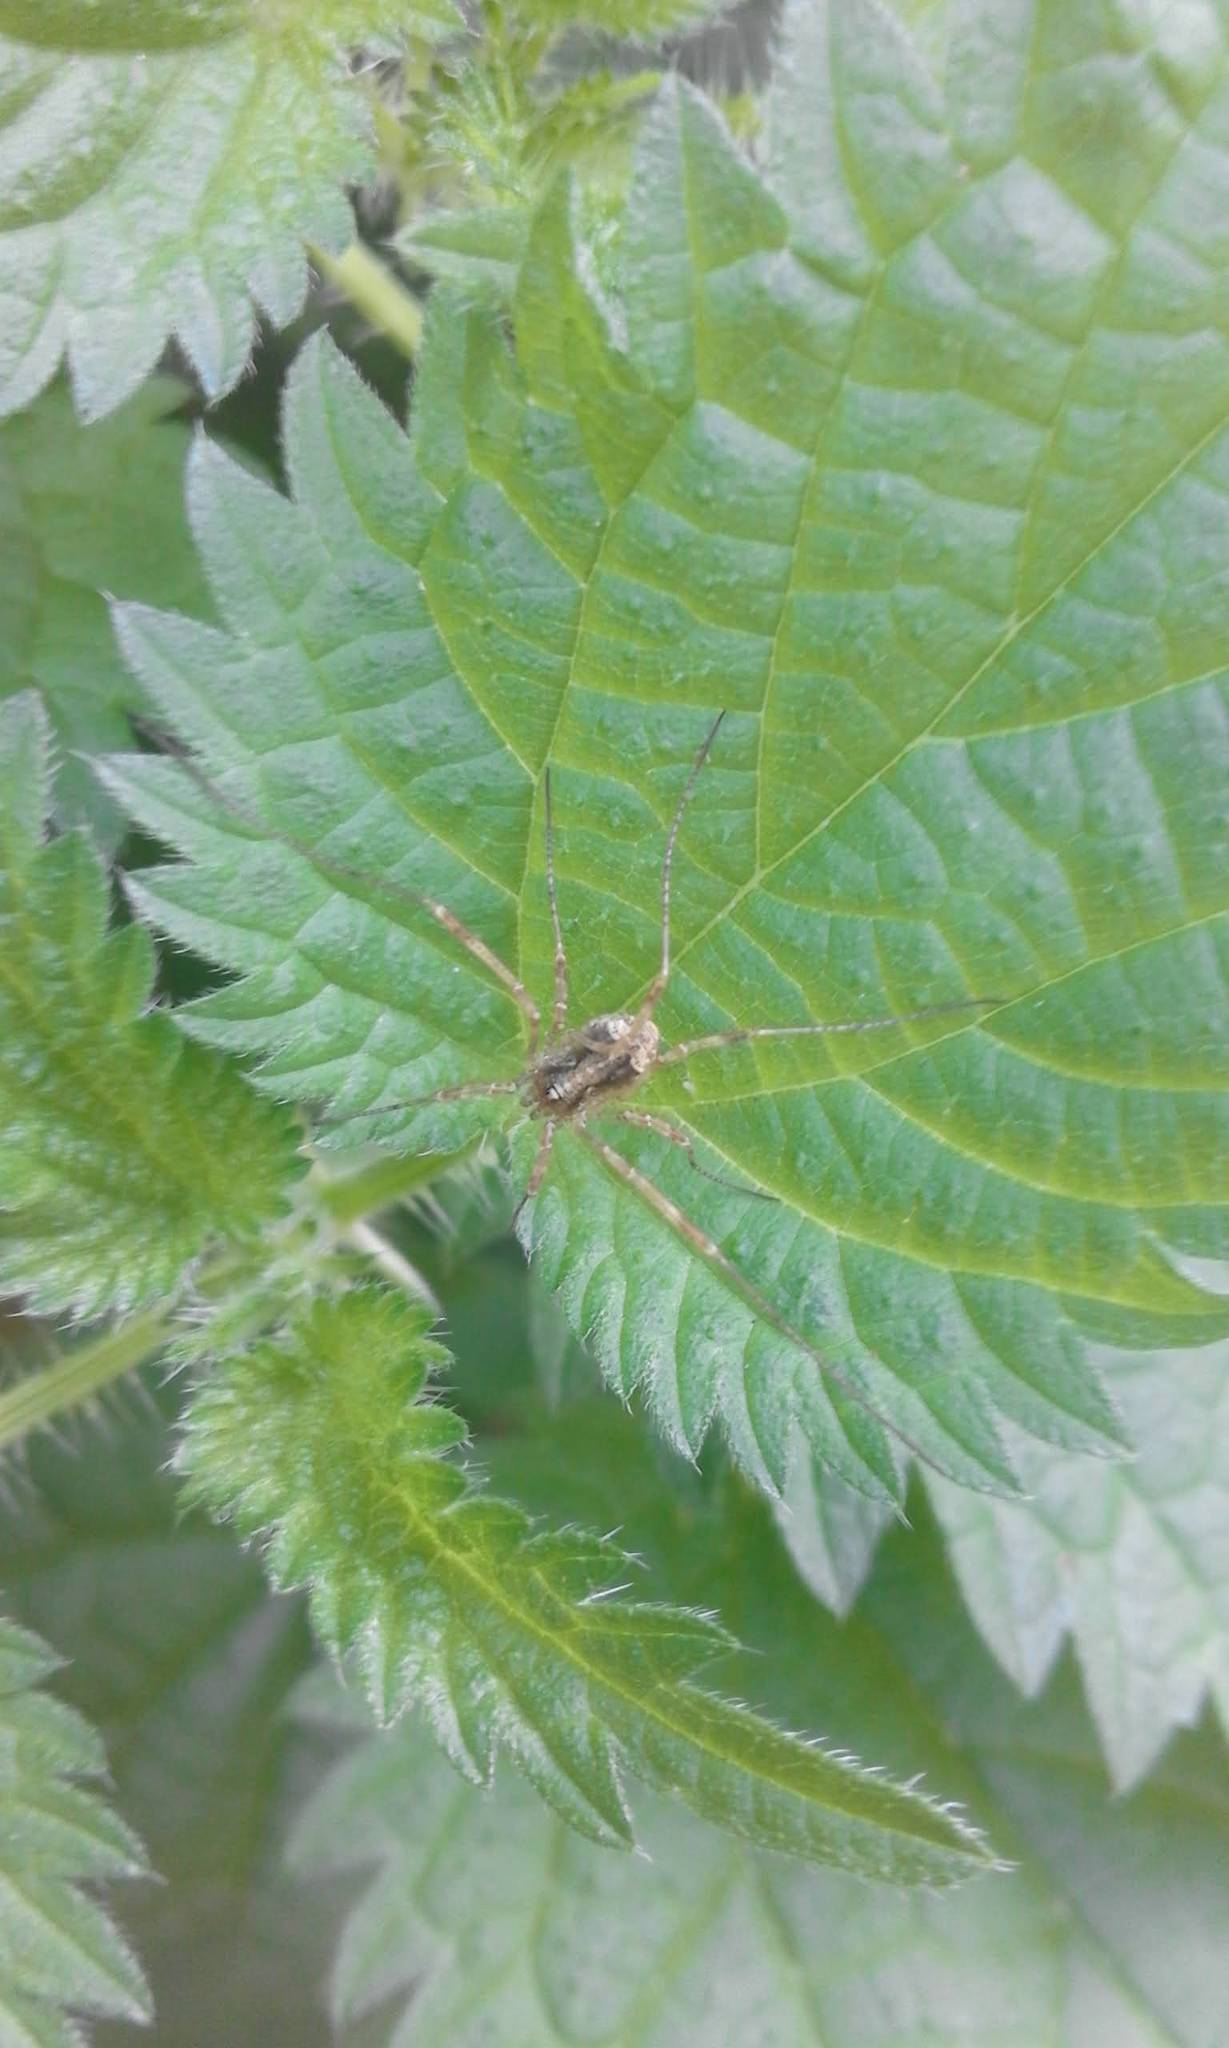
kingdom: Animalia
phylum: Arthropoda
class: Arachnida
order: Opiliones
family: Phalangiidae
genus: Paroligolophus
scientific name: Paroligolophus agrestis
